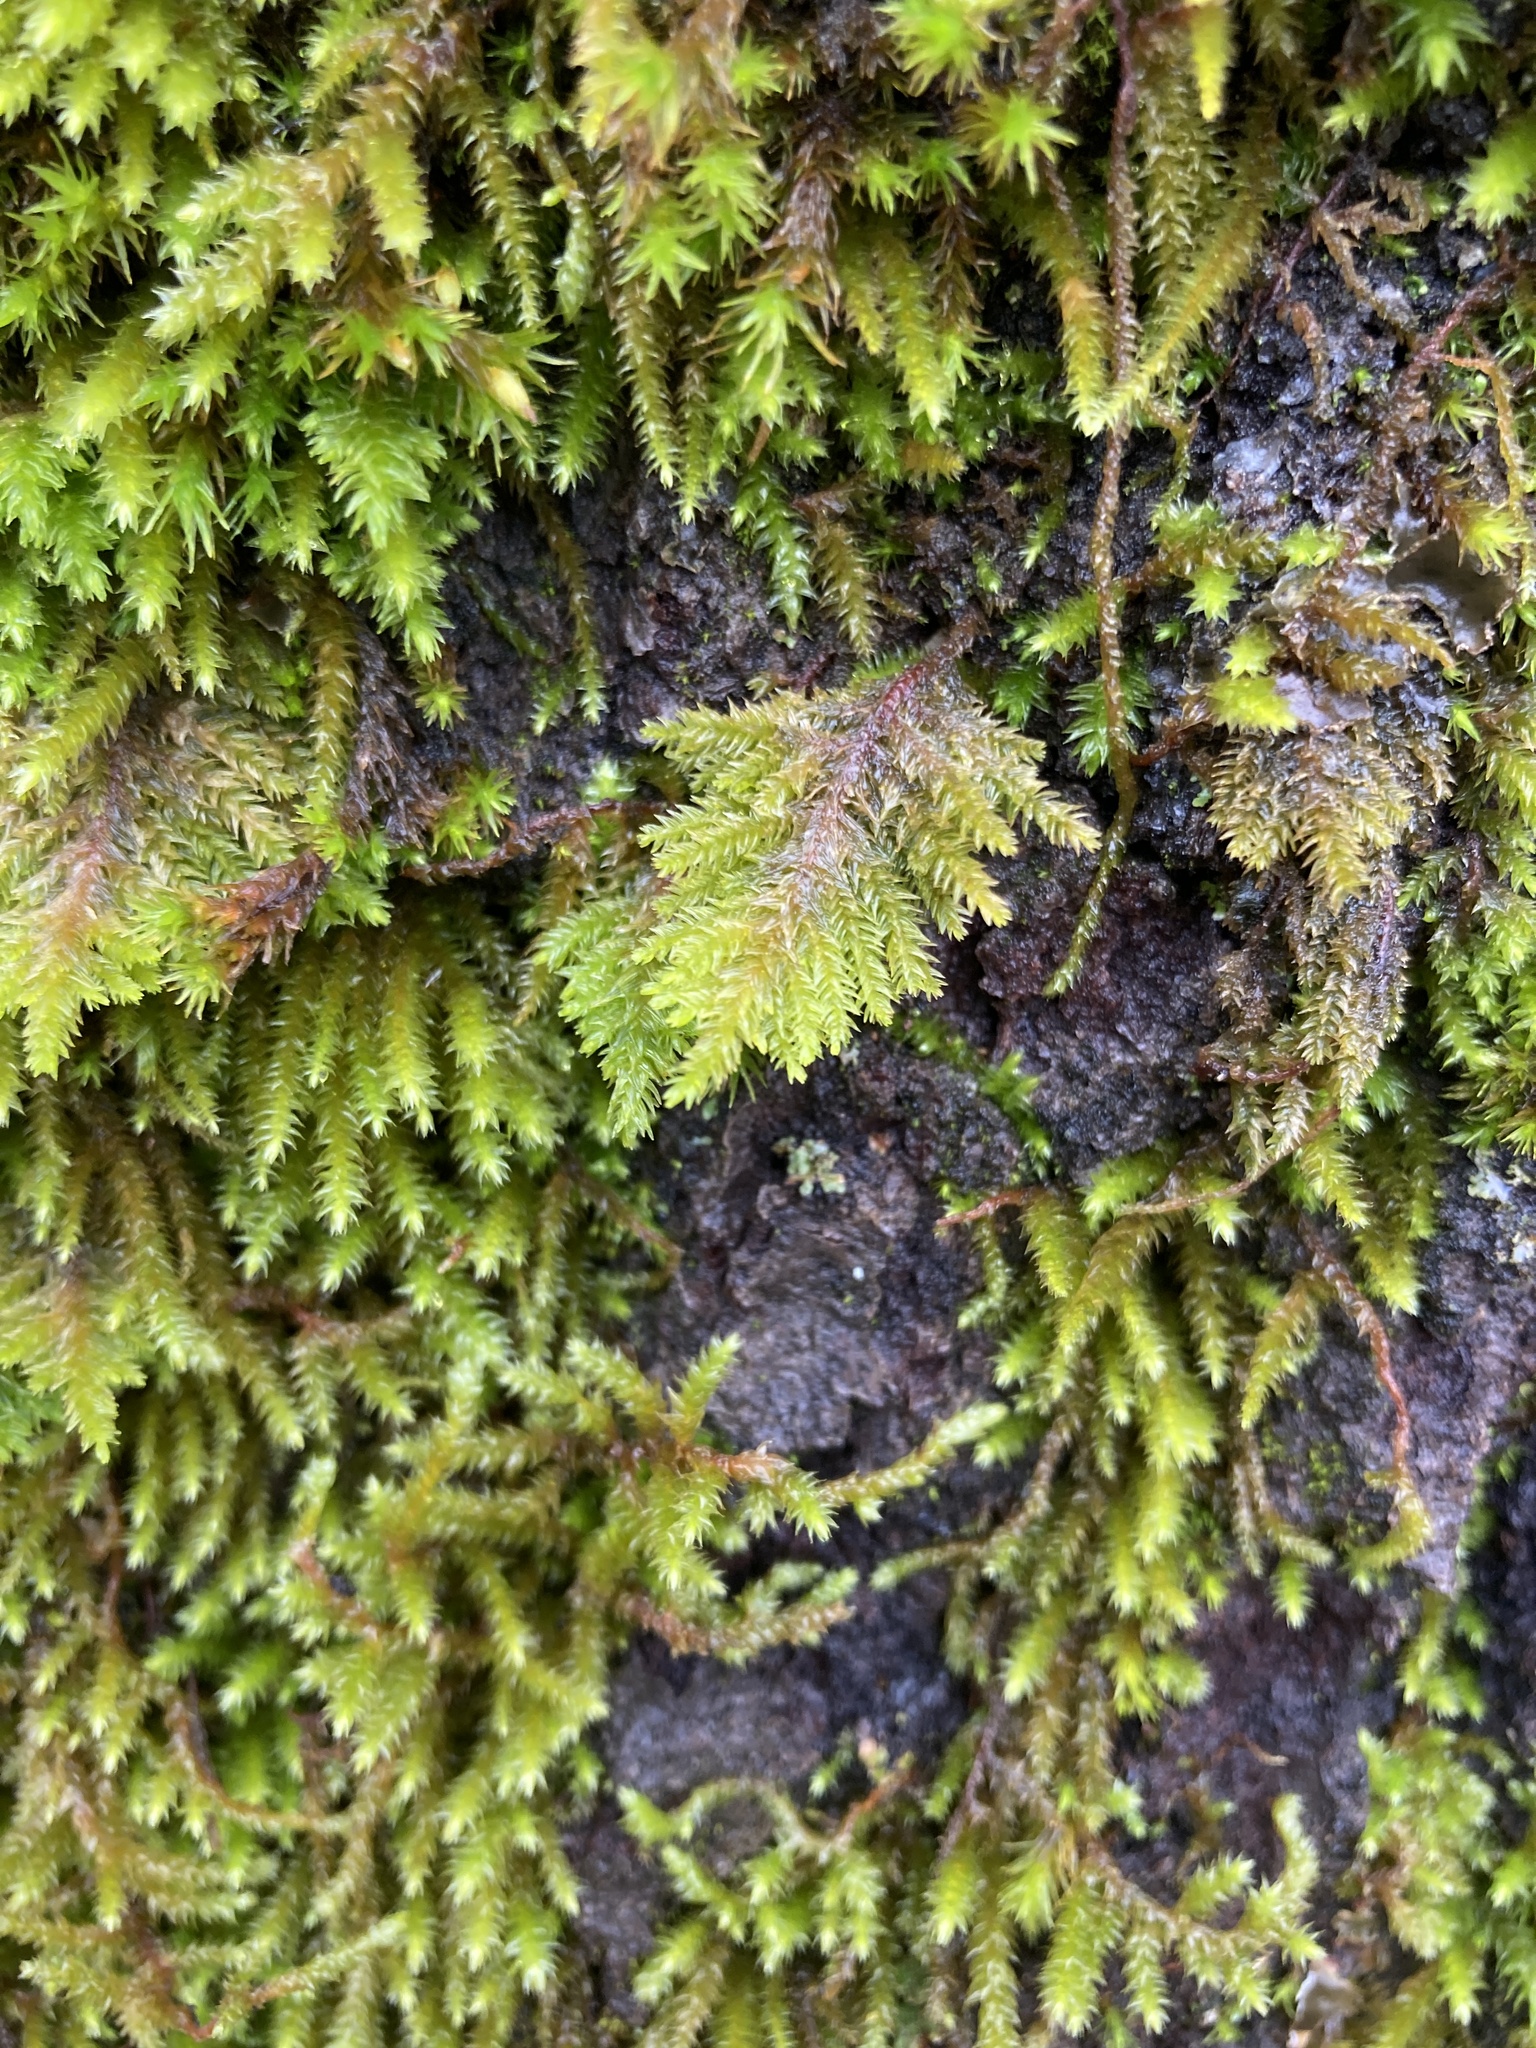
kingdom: Plantae
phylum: Bryophyta
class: Bryopsida
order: Hypnales
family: Cryphaeaceae
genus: Dendroalsia
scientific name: Dendroalsia abietina
